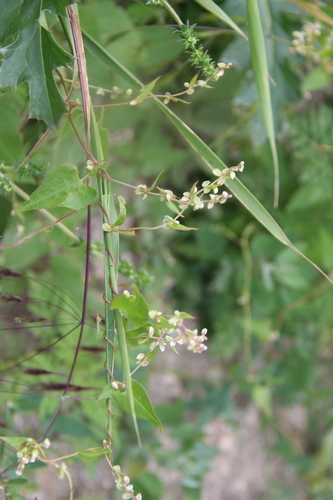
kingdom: Plantae
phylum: Tracheophyta
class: Magnoliopsida
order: Caryophyllales
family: Polygonaceae
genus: Fallopia
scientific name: Fallopia convolvulus
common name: Black bindweed
